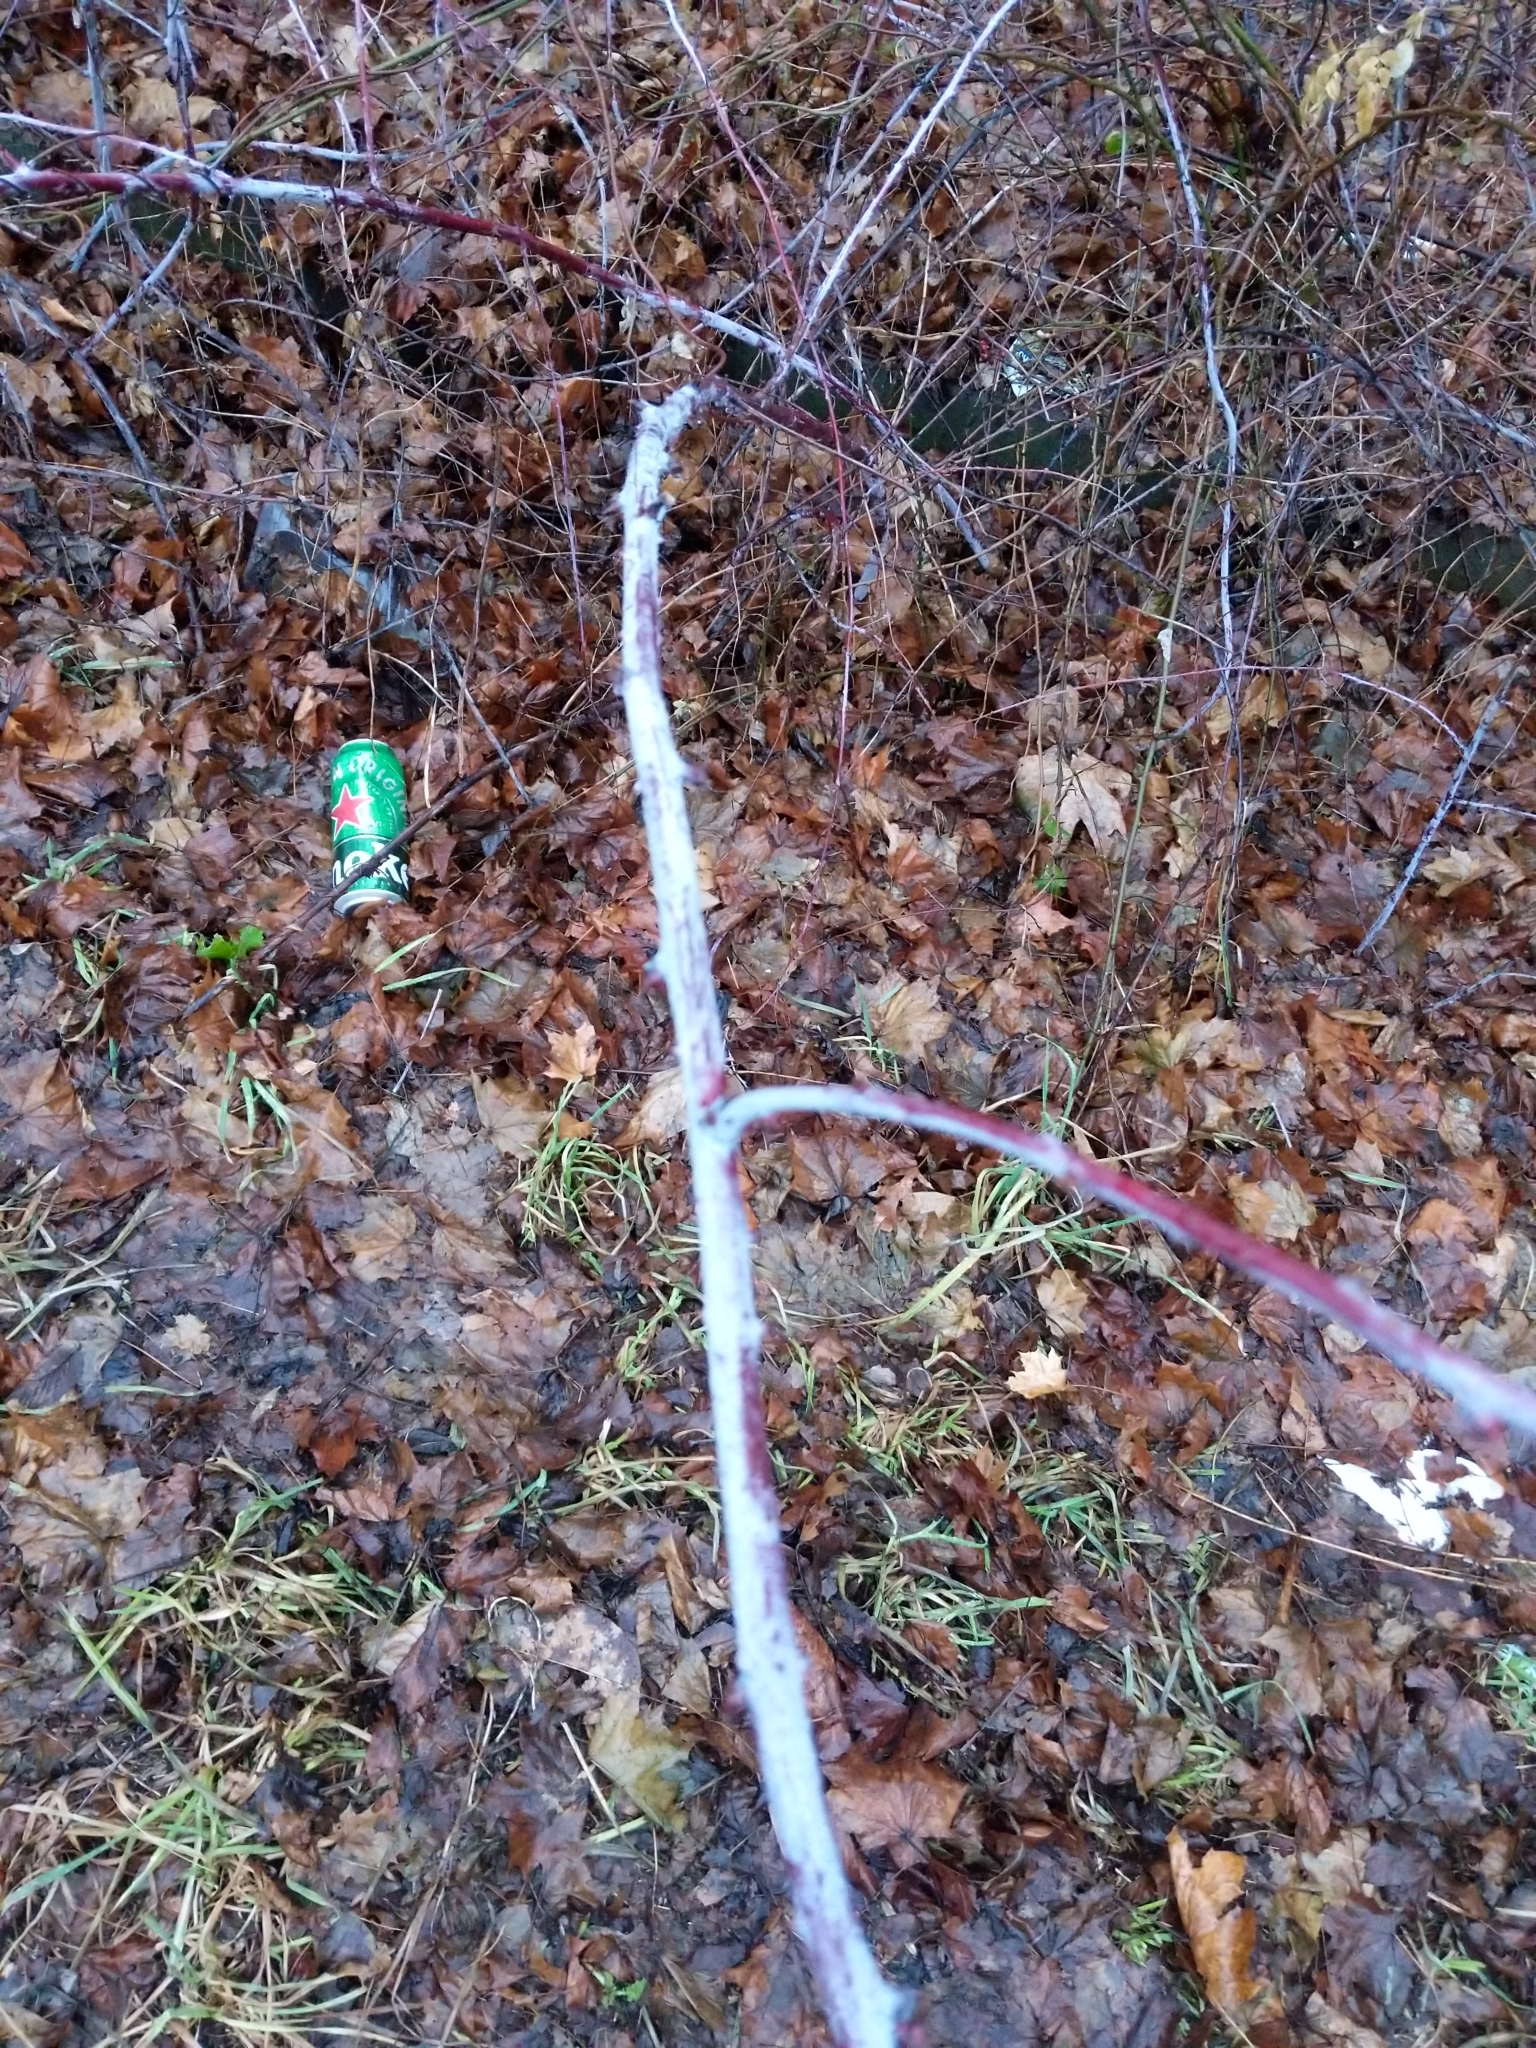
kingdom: Plantae
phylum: Tracheophyta
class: Magnoliopsida
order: Rosales
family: Rosaceae
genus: Rubus
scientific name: Rubus occidentalis
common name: Black raspberry
